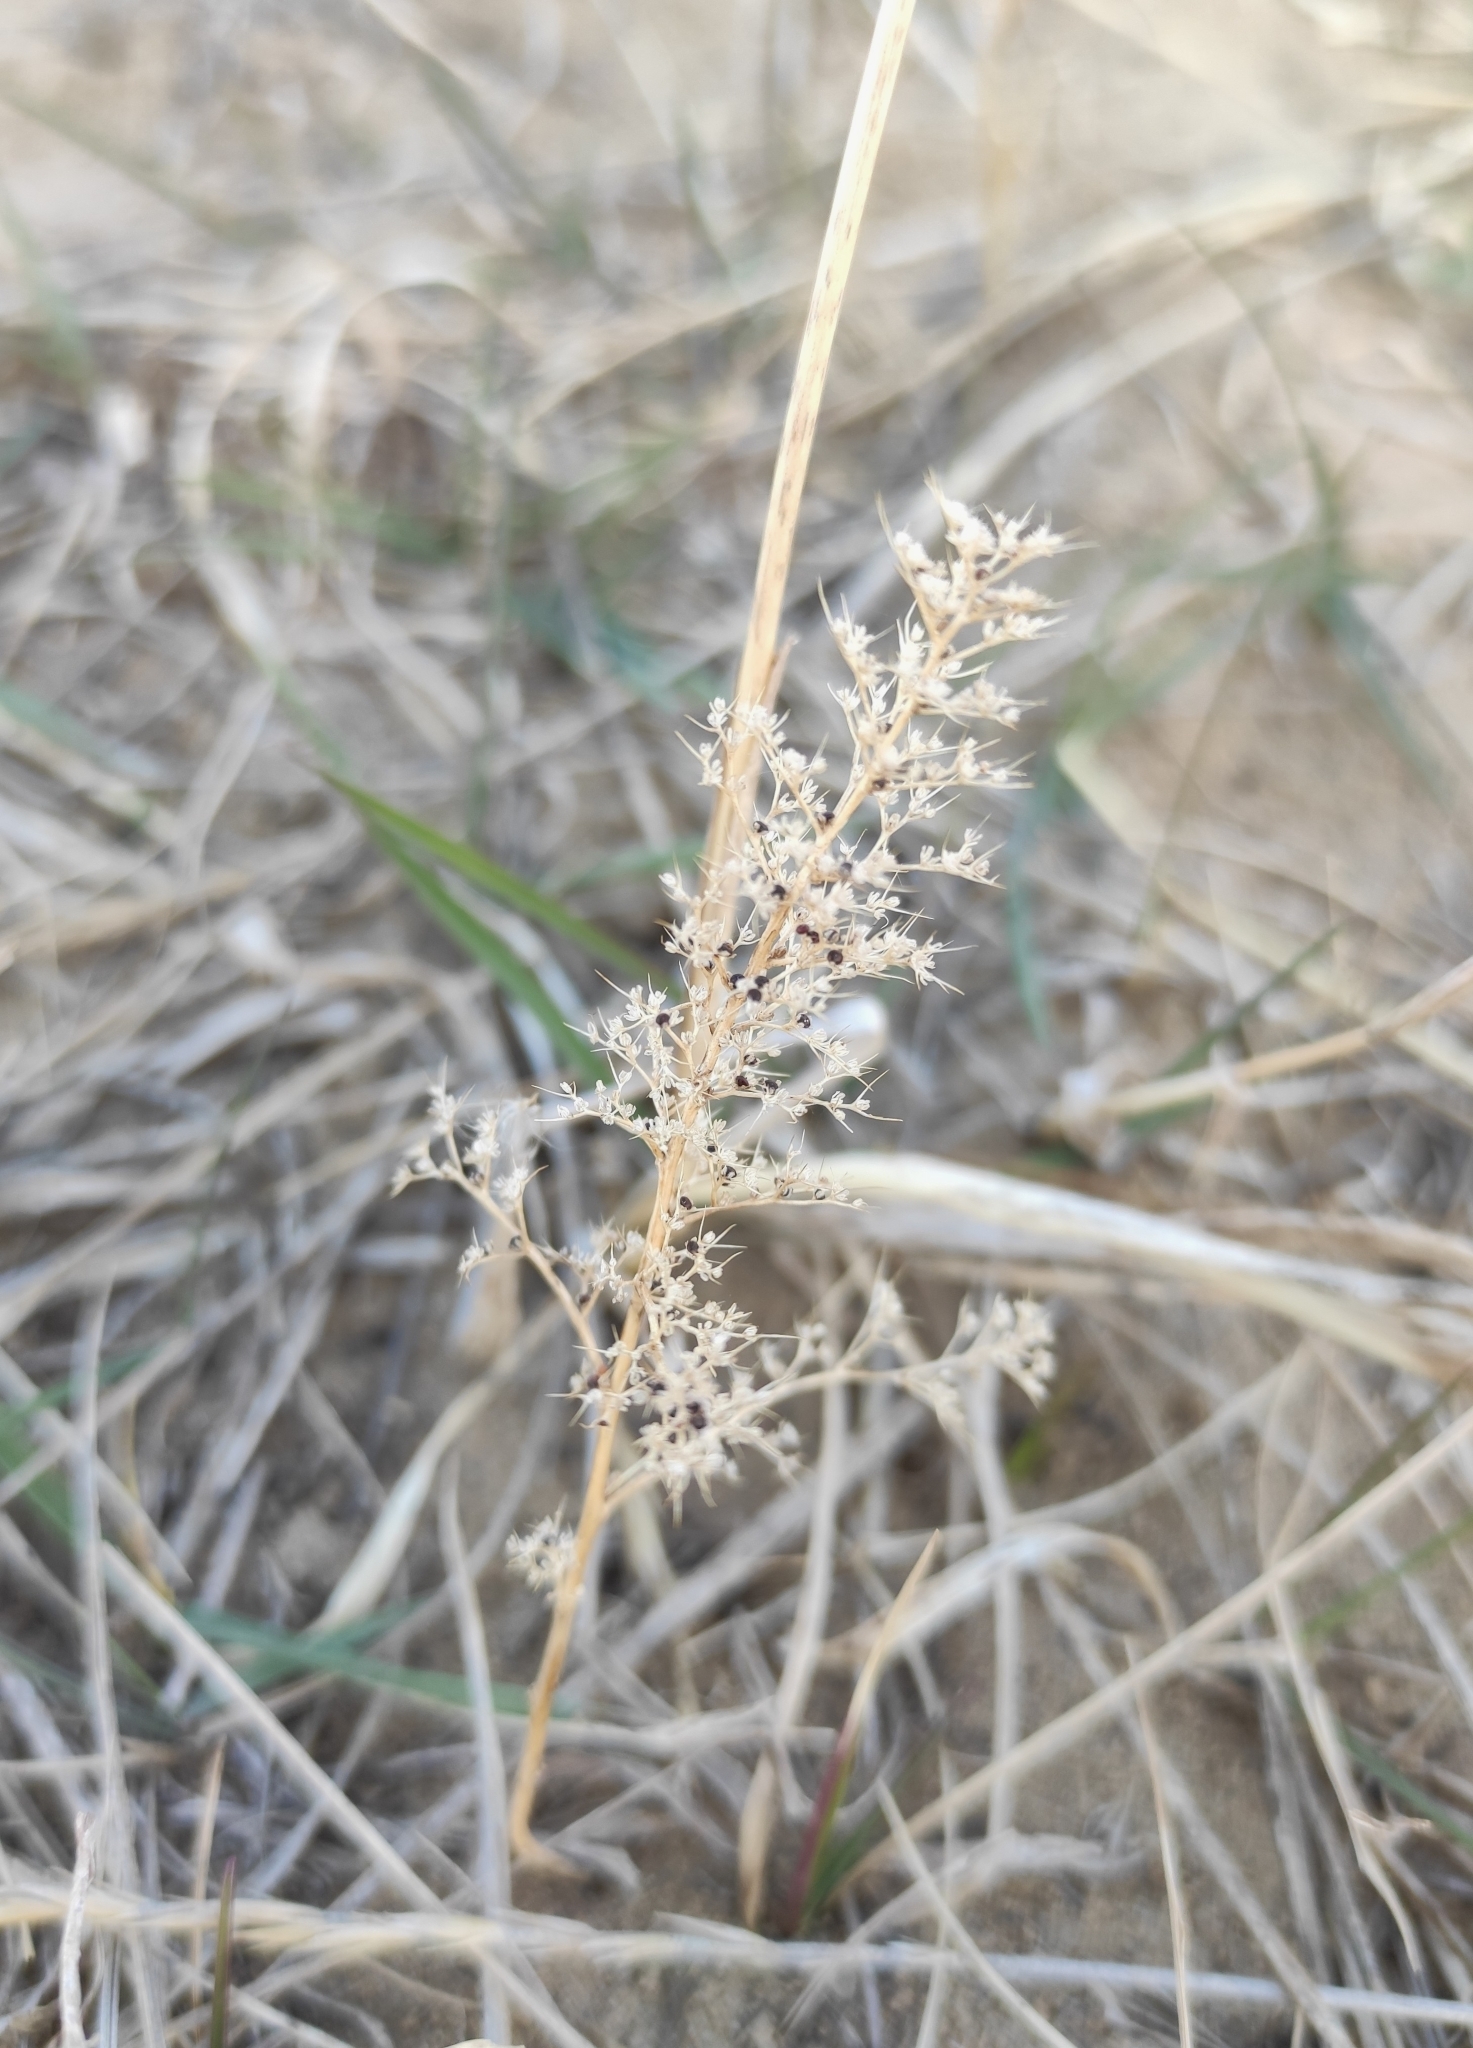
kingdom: Plantae
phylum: Tracheophyta
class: Magnoliopsida
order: Caryophyllales
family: Amaranthaceae
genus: Teloxys
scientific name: Teloxys aristata
